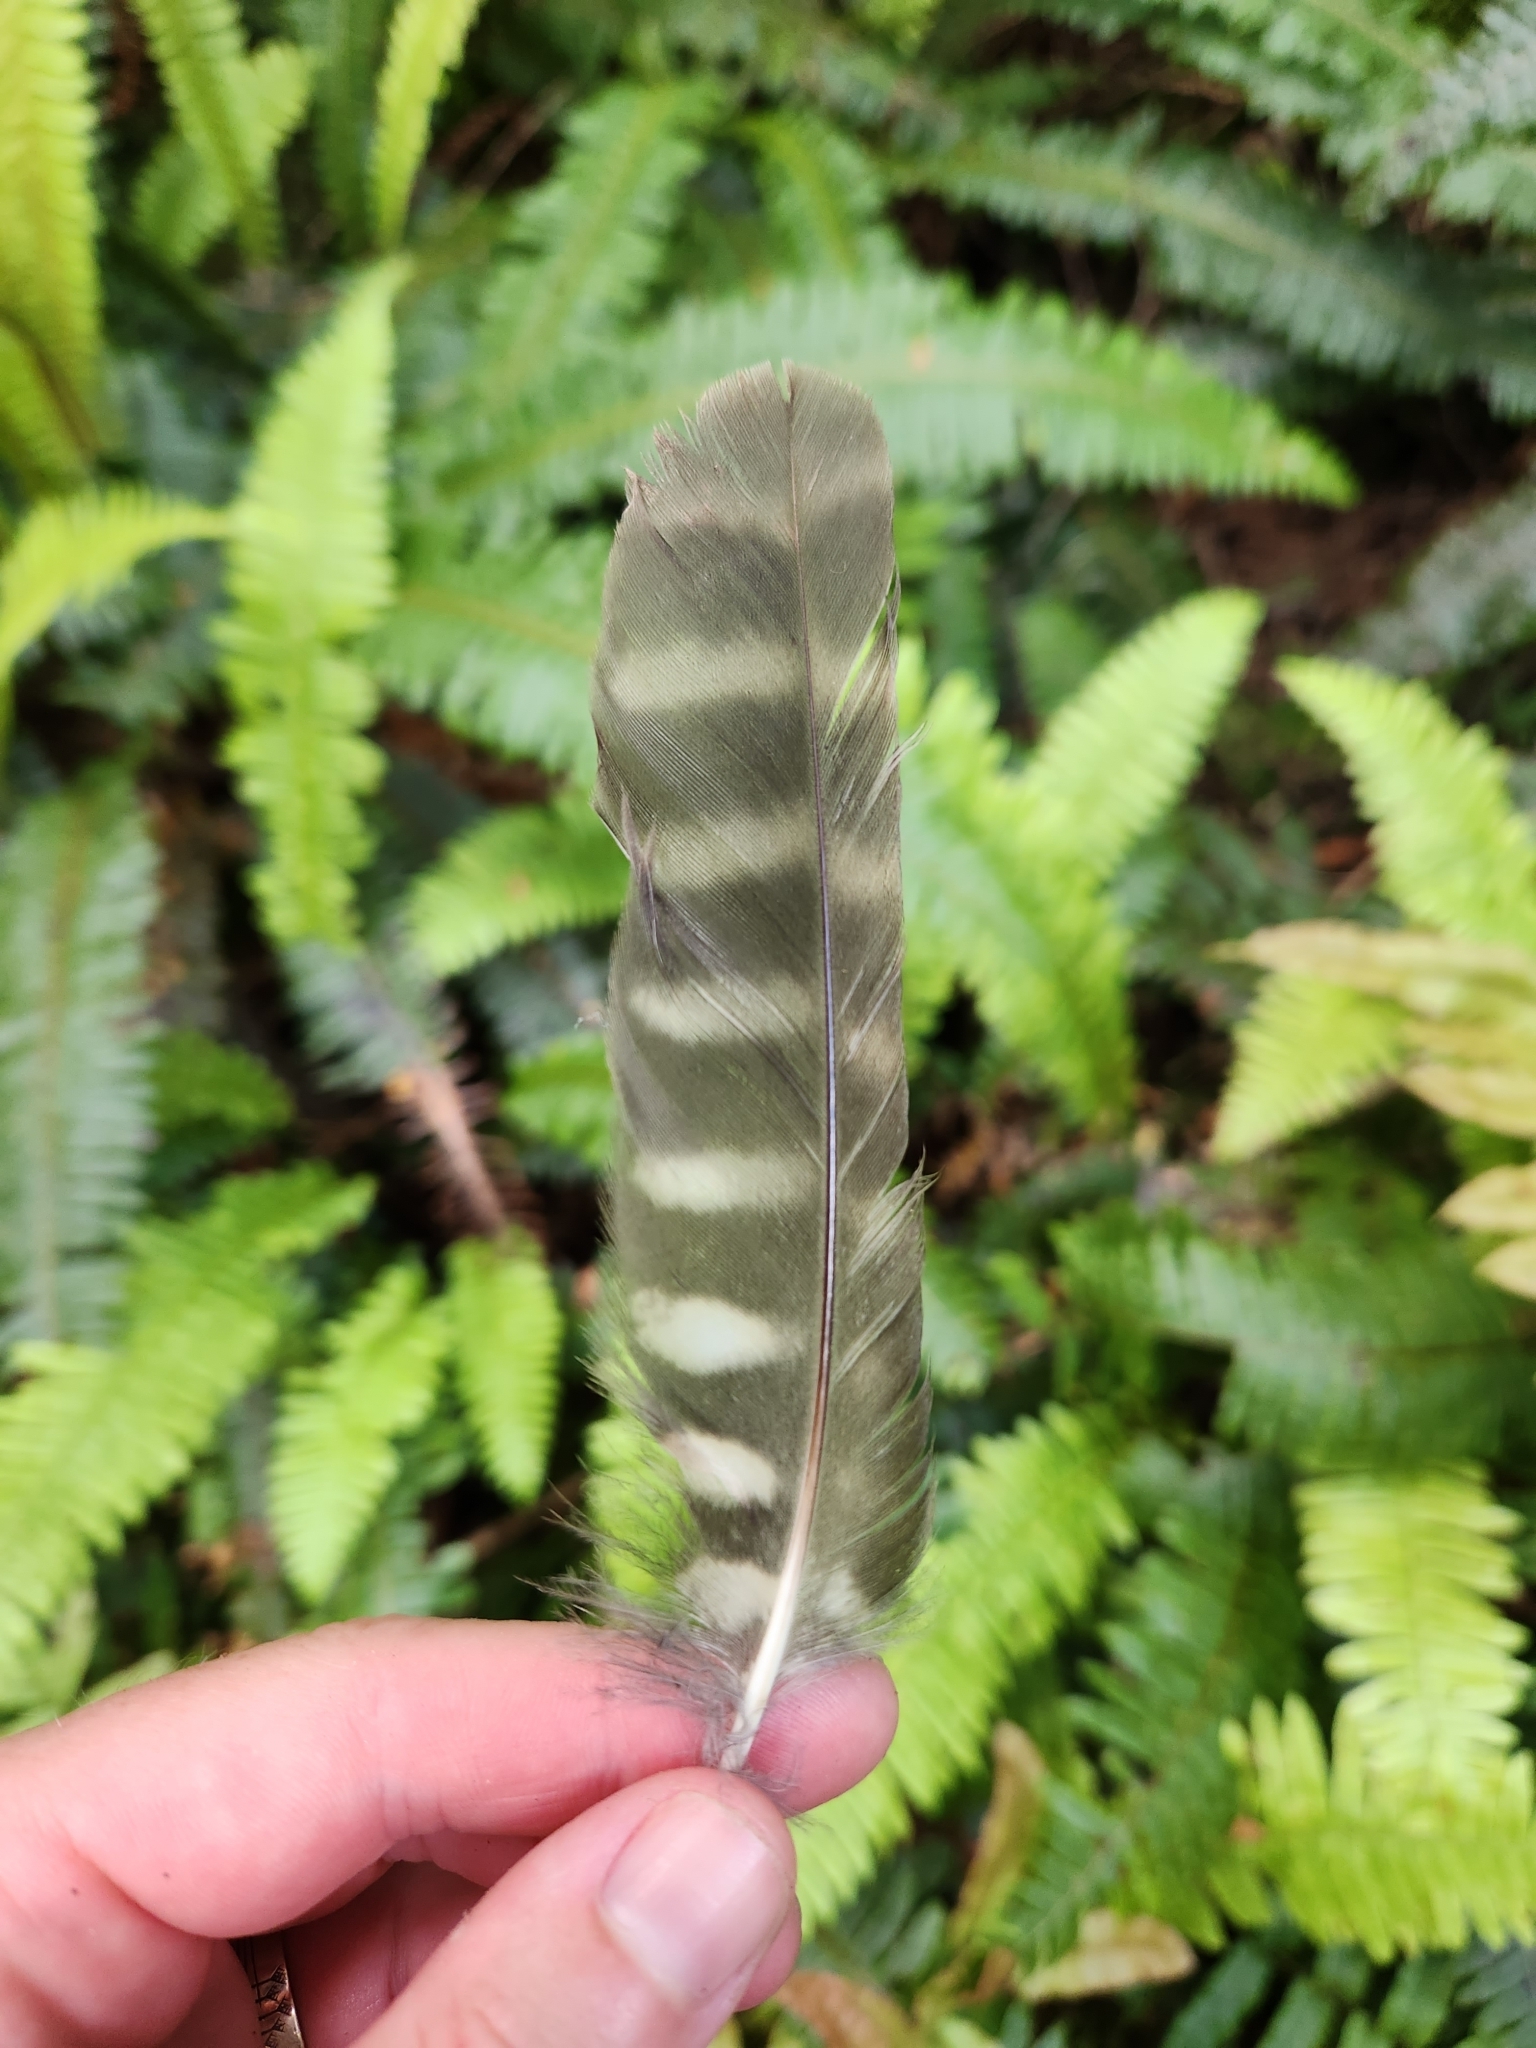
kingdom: Animalia
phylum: Chordata
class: Aves
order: Strigiformes
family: Strigidae
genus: Ninox
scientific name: Ninox novaeseelandiae
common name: Morepork
